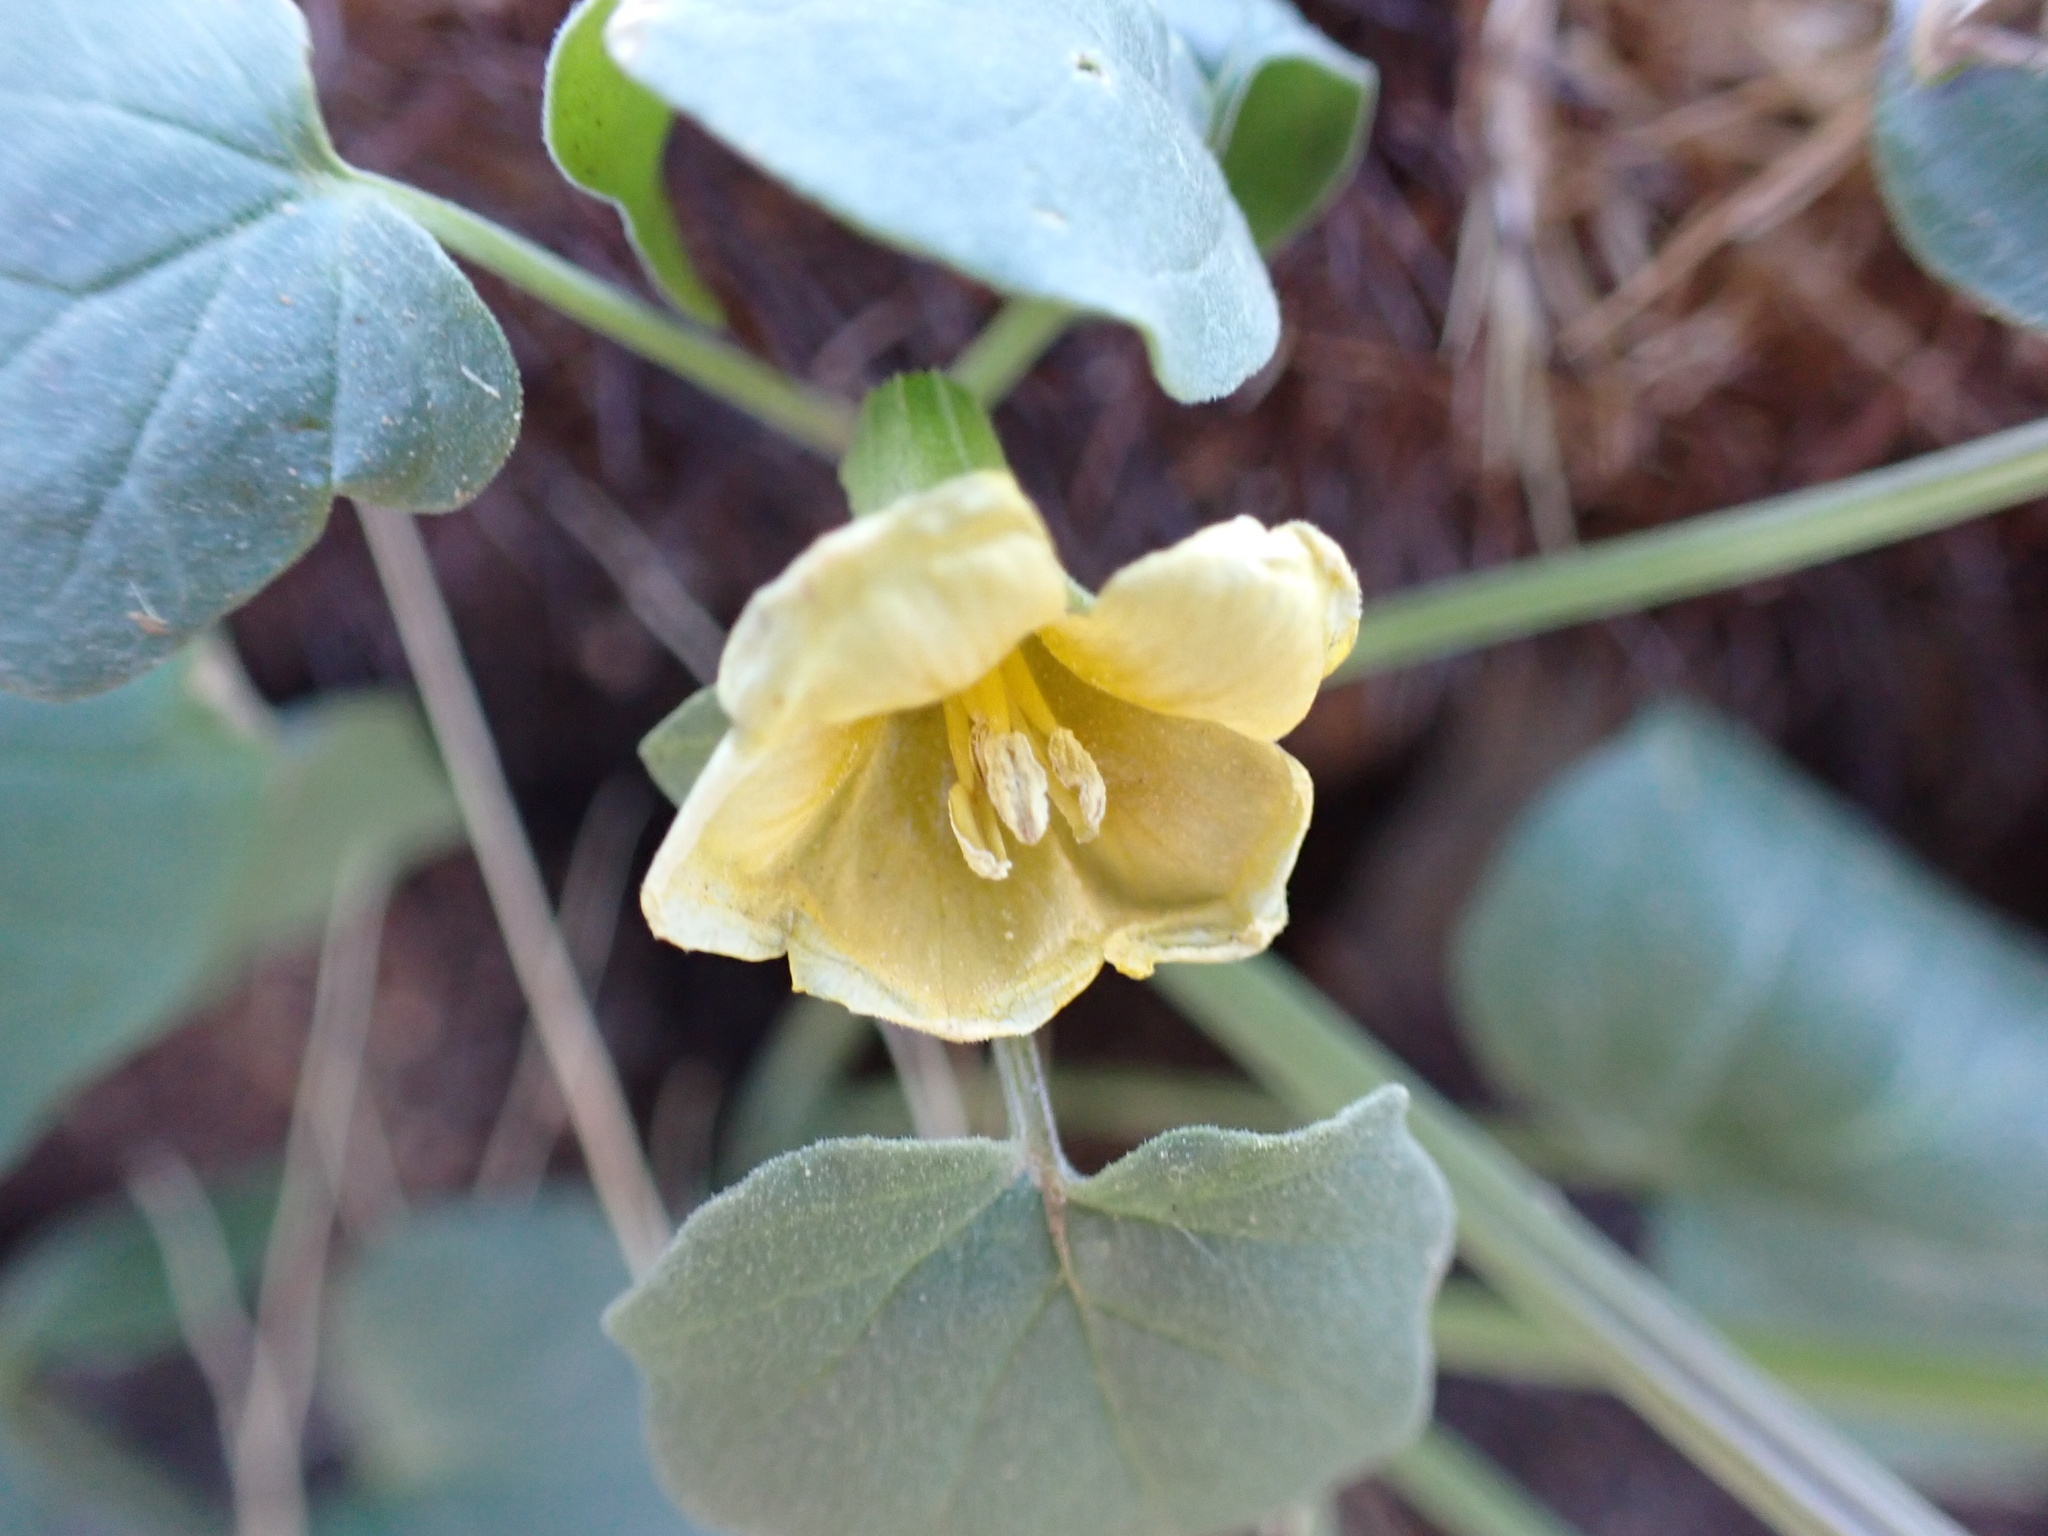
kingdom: Plantae
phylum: Tracheophyta
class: Magnoliopsida
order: Solanales
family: Solanaceae
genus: Physalis
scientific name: Physalis crassifolia
